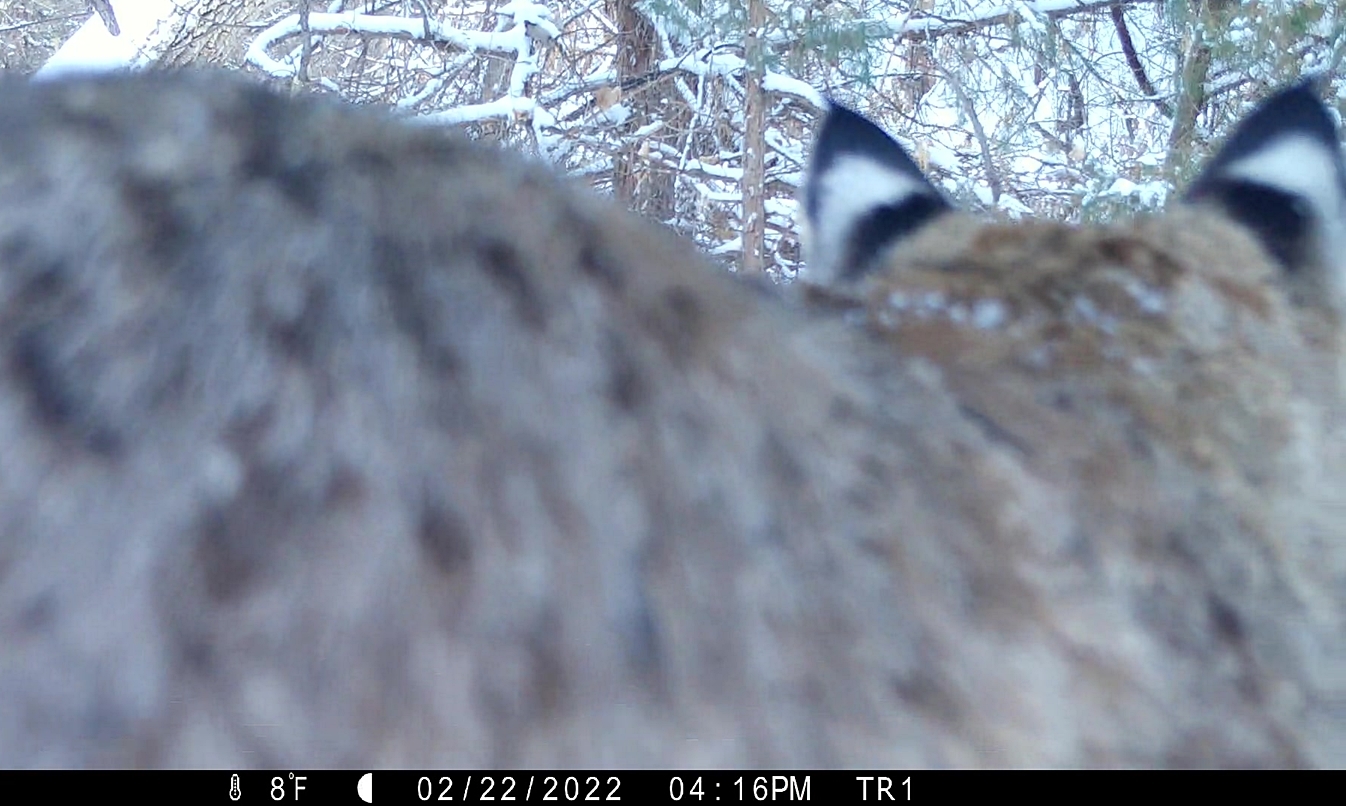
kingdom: Animalia
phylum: Chordata
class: Mammalia
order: Carnivora
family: Felidae
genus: Lynx
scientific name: Lynx rufus
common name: Bobcat
